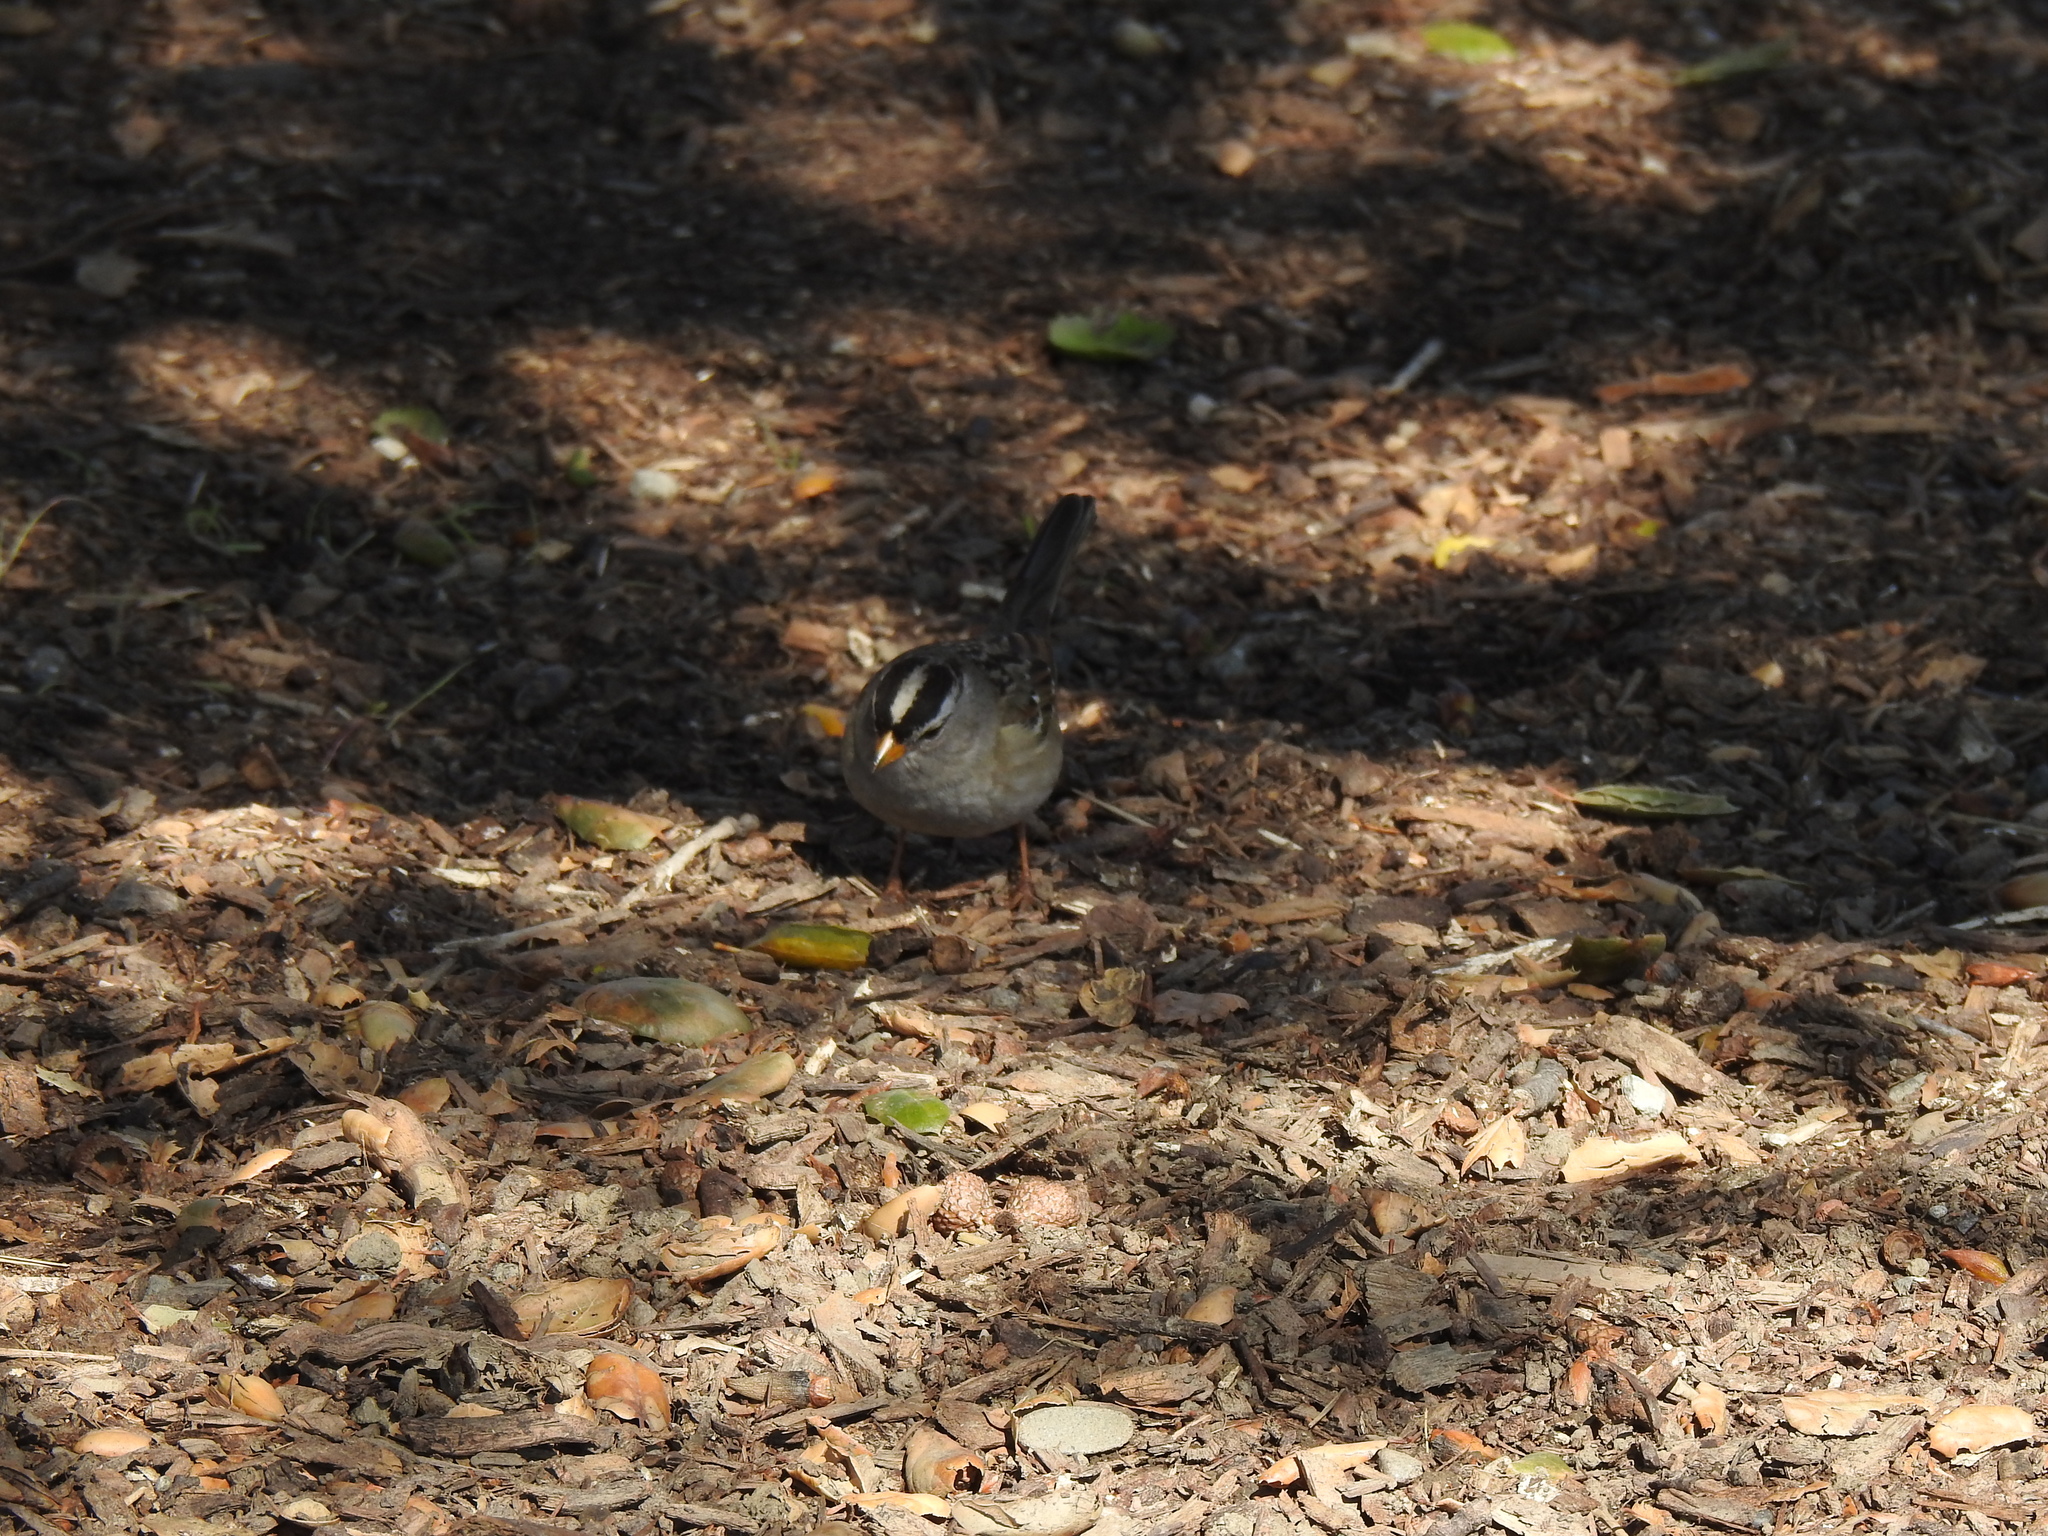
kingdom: Animalia
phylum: Chordata
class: Aves
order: Passeriformes
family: Passerellidae
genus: Zonotrichia
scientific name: Zonotrichia leucophrys
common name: White-crowned sparrow
